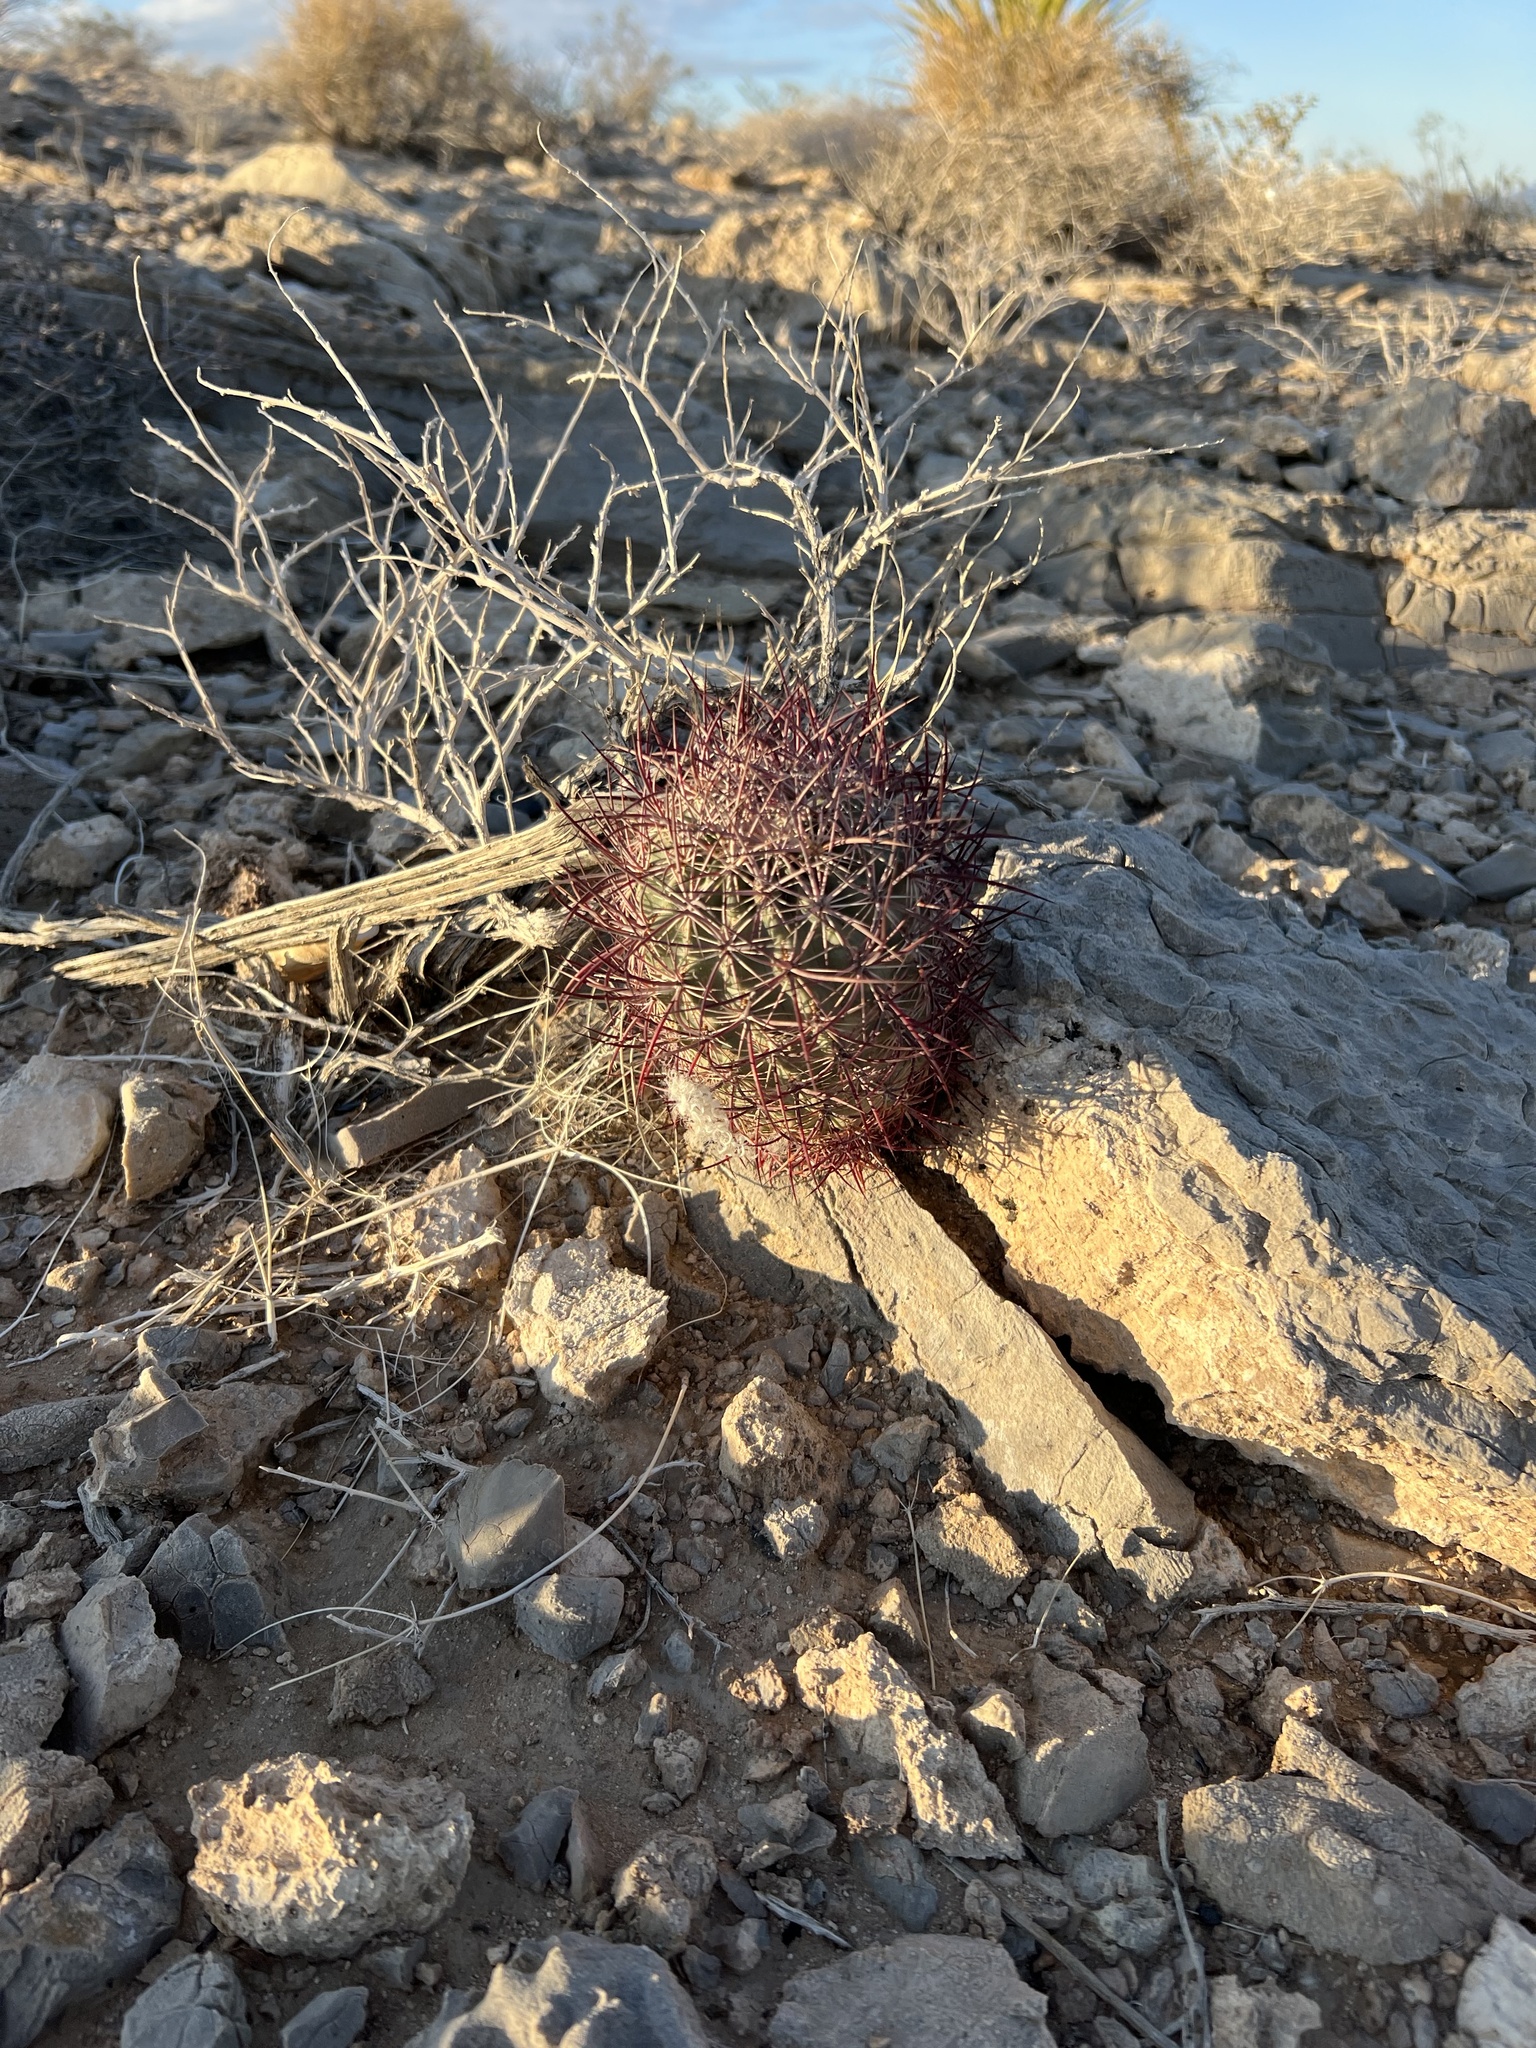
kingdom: Plantae
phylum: Tracheophyta
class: Magnoliopsida
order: Caryophyllales
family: Cactaceae
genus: Sclerocactus
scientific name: Sclerocactus johnsonii
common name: Eight-spine fishhook cactus
